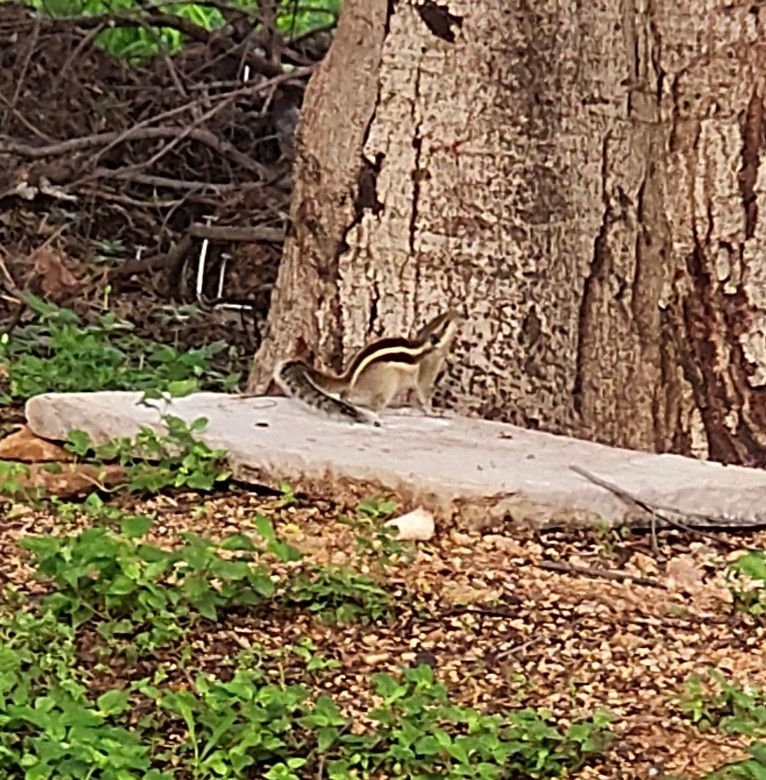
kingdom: Animalia
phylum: Chordata
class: Mammalia
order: Rodentia
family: Sciuridae
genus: Funambulus
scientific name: Funambulus pennantii
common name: Northern palm squirrel
